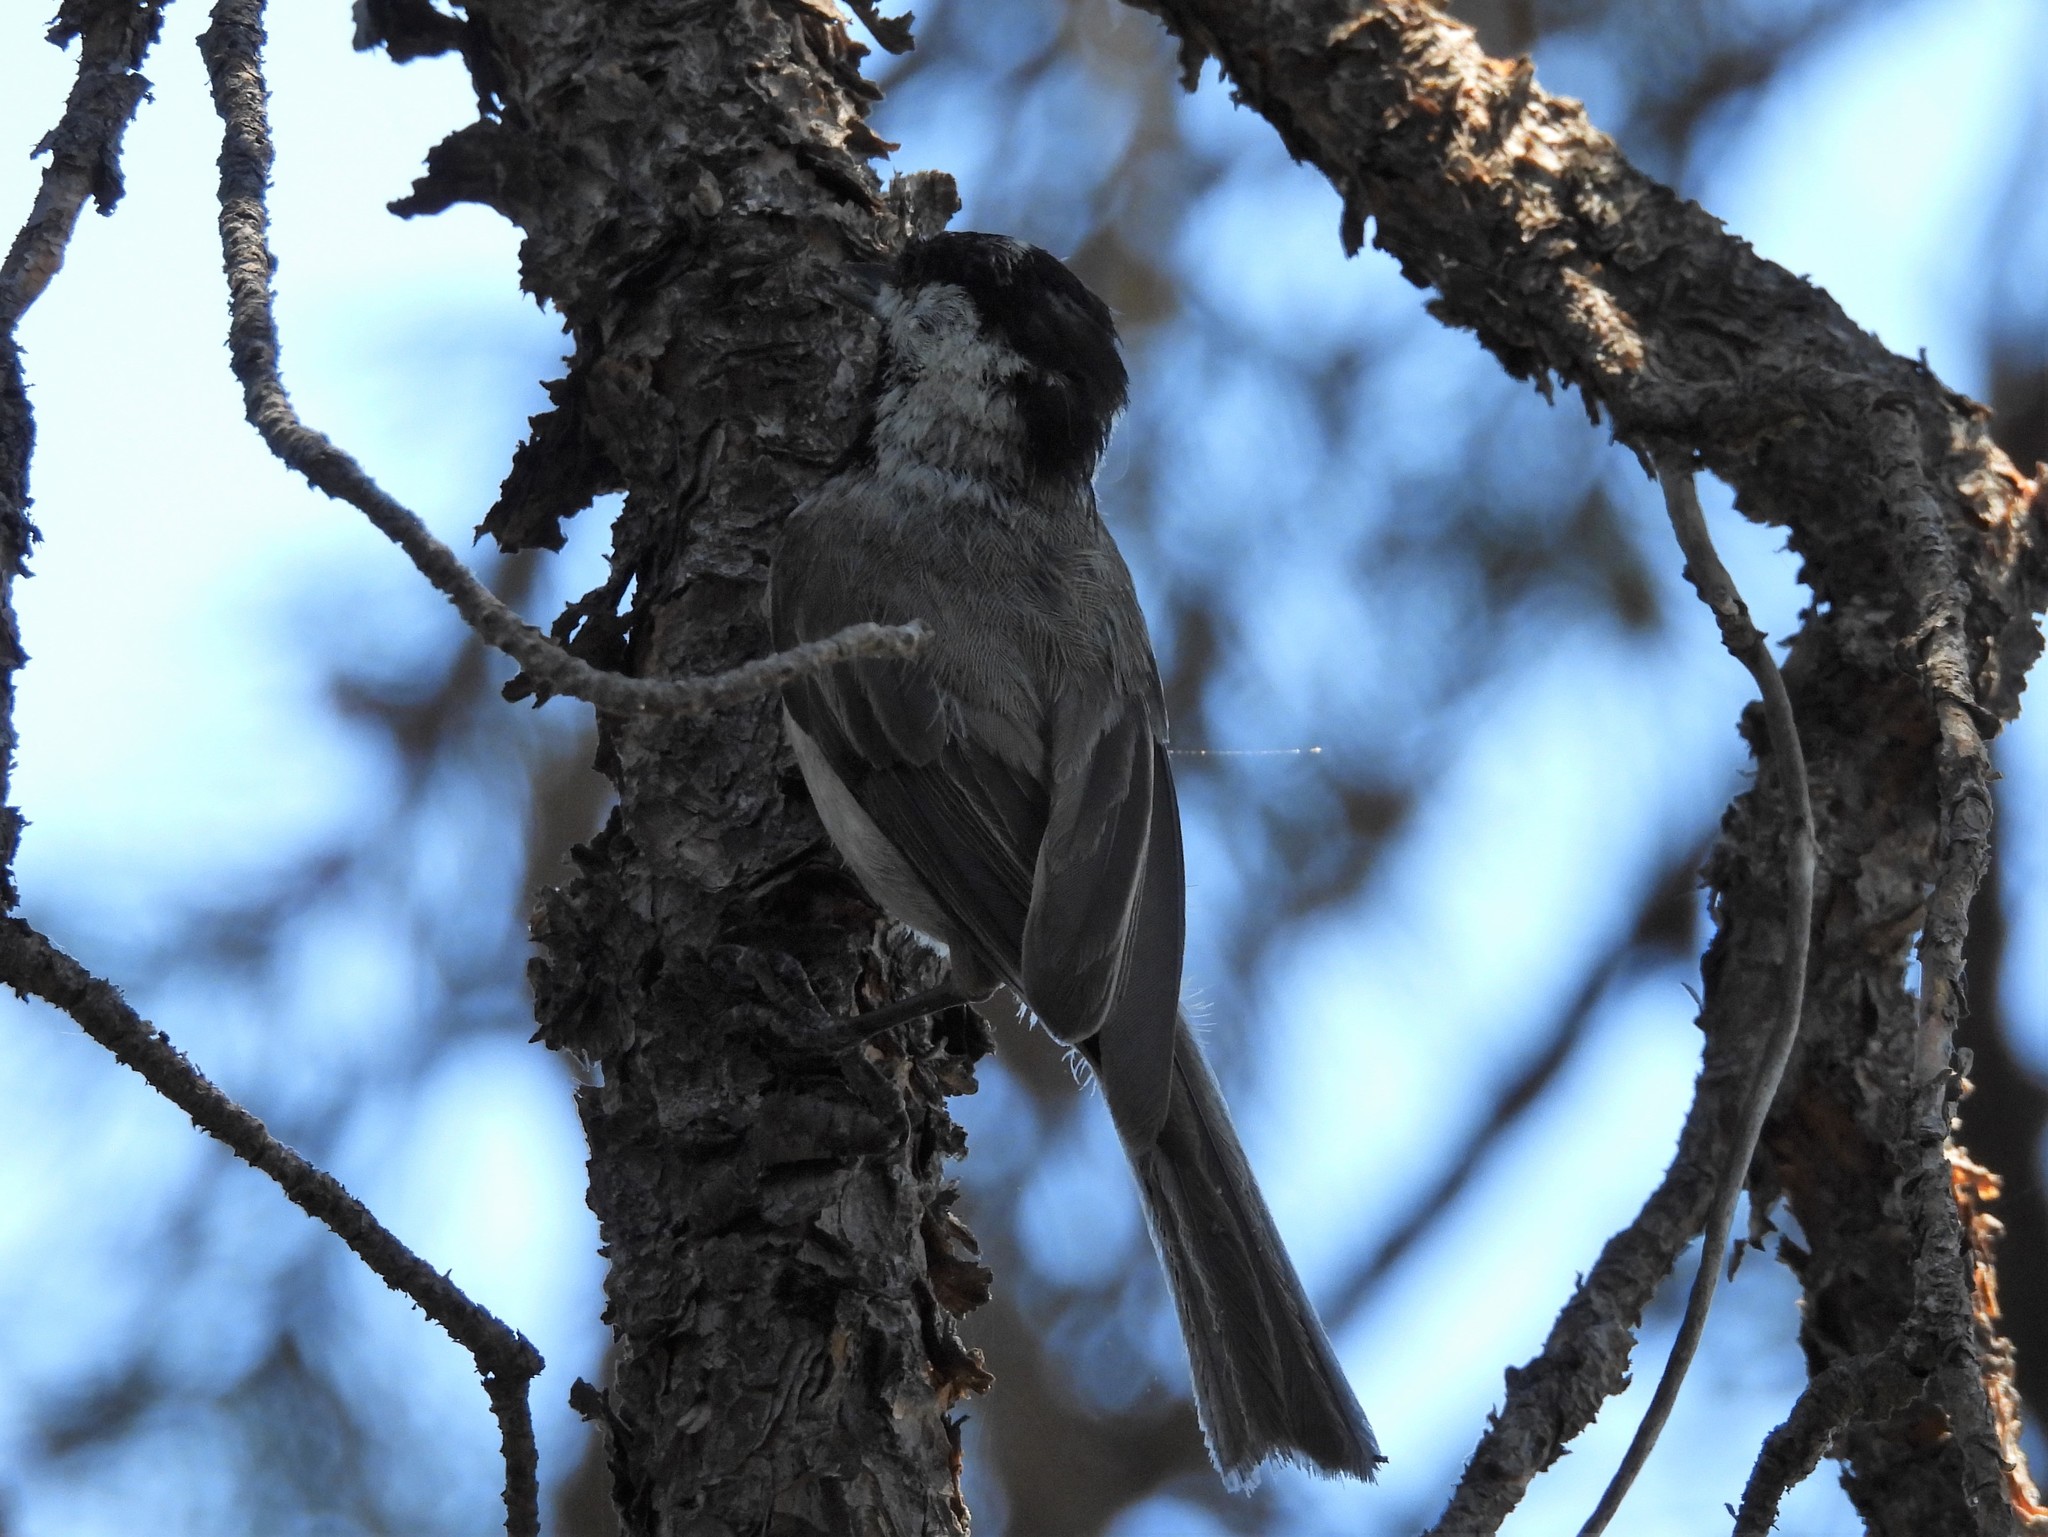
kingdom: Animalia
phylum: Chordata
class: Aves
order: Passeriformes
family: Paridae
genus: Poecile
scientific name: Poecile gambeli
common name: Mountain chickadee
